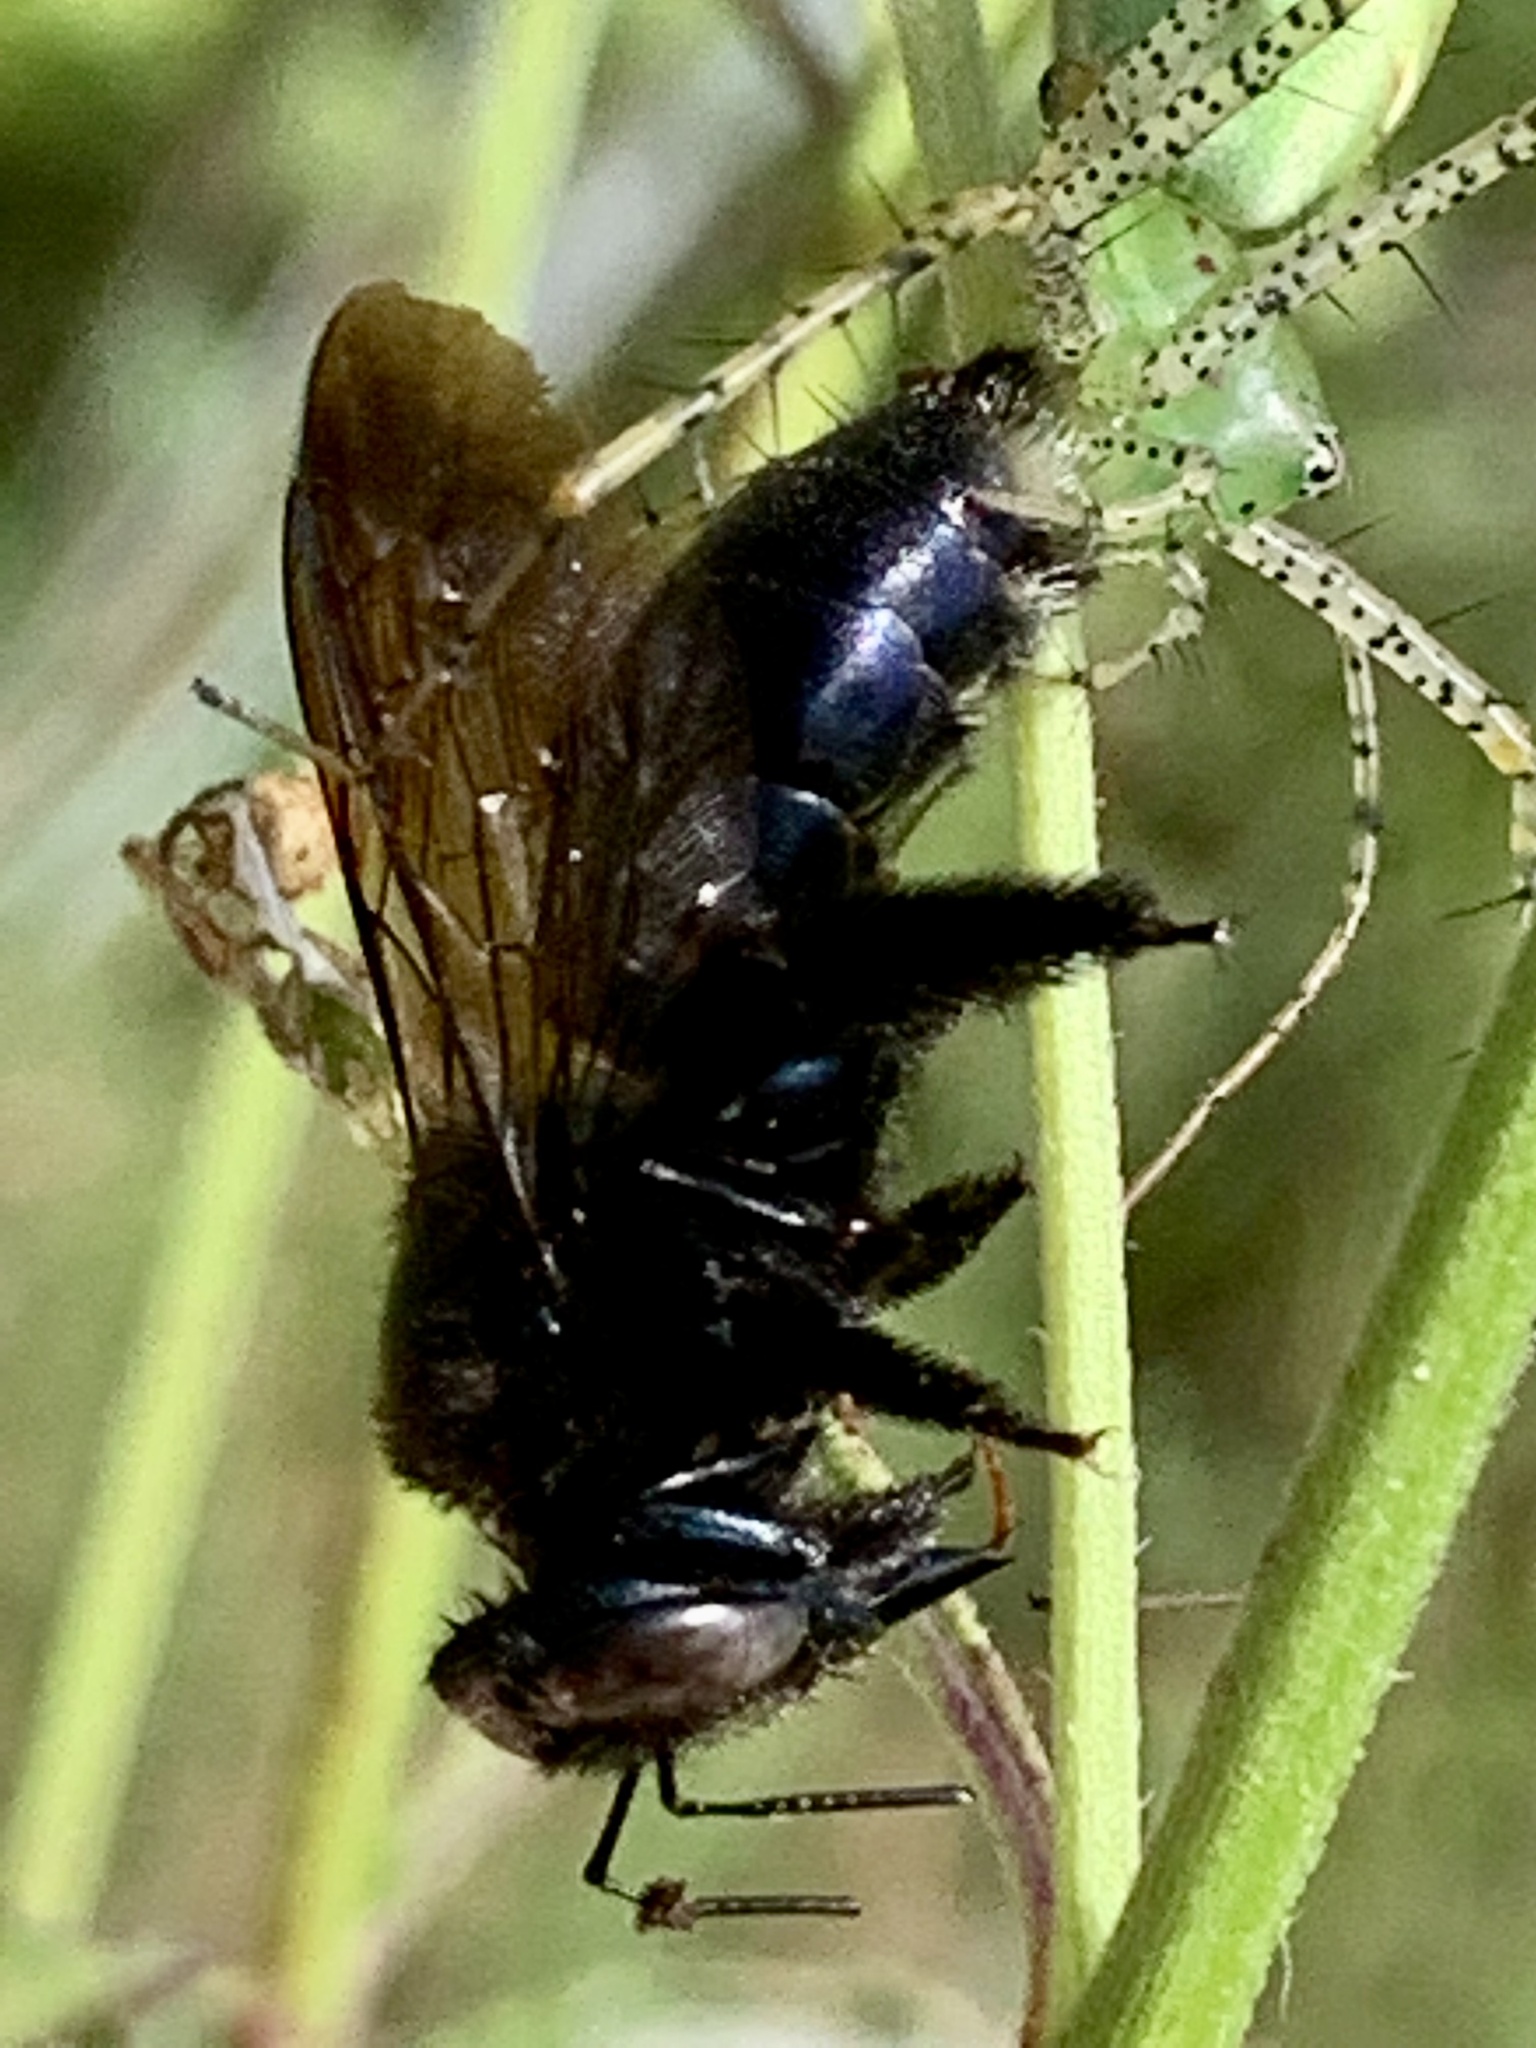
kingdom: Animalia
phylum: Arthropoda
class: Insecta
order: Hymenoptera
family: Apidae
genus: Xylocopa
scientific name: Xylocopa micans
